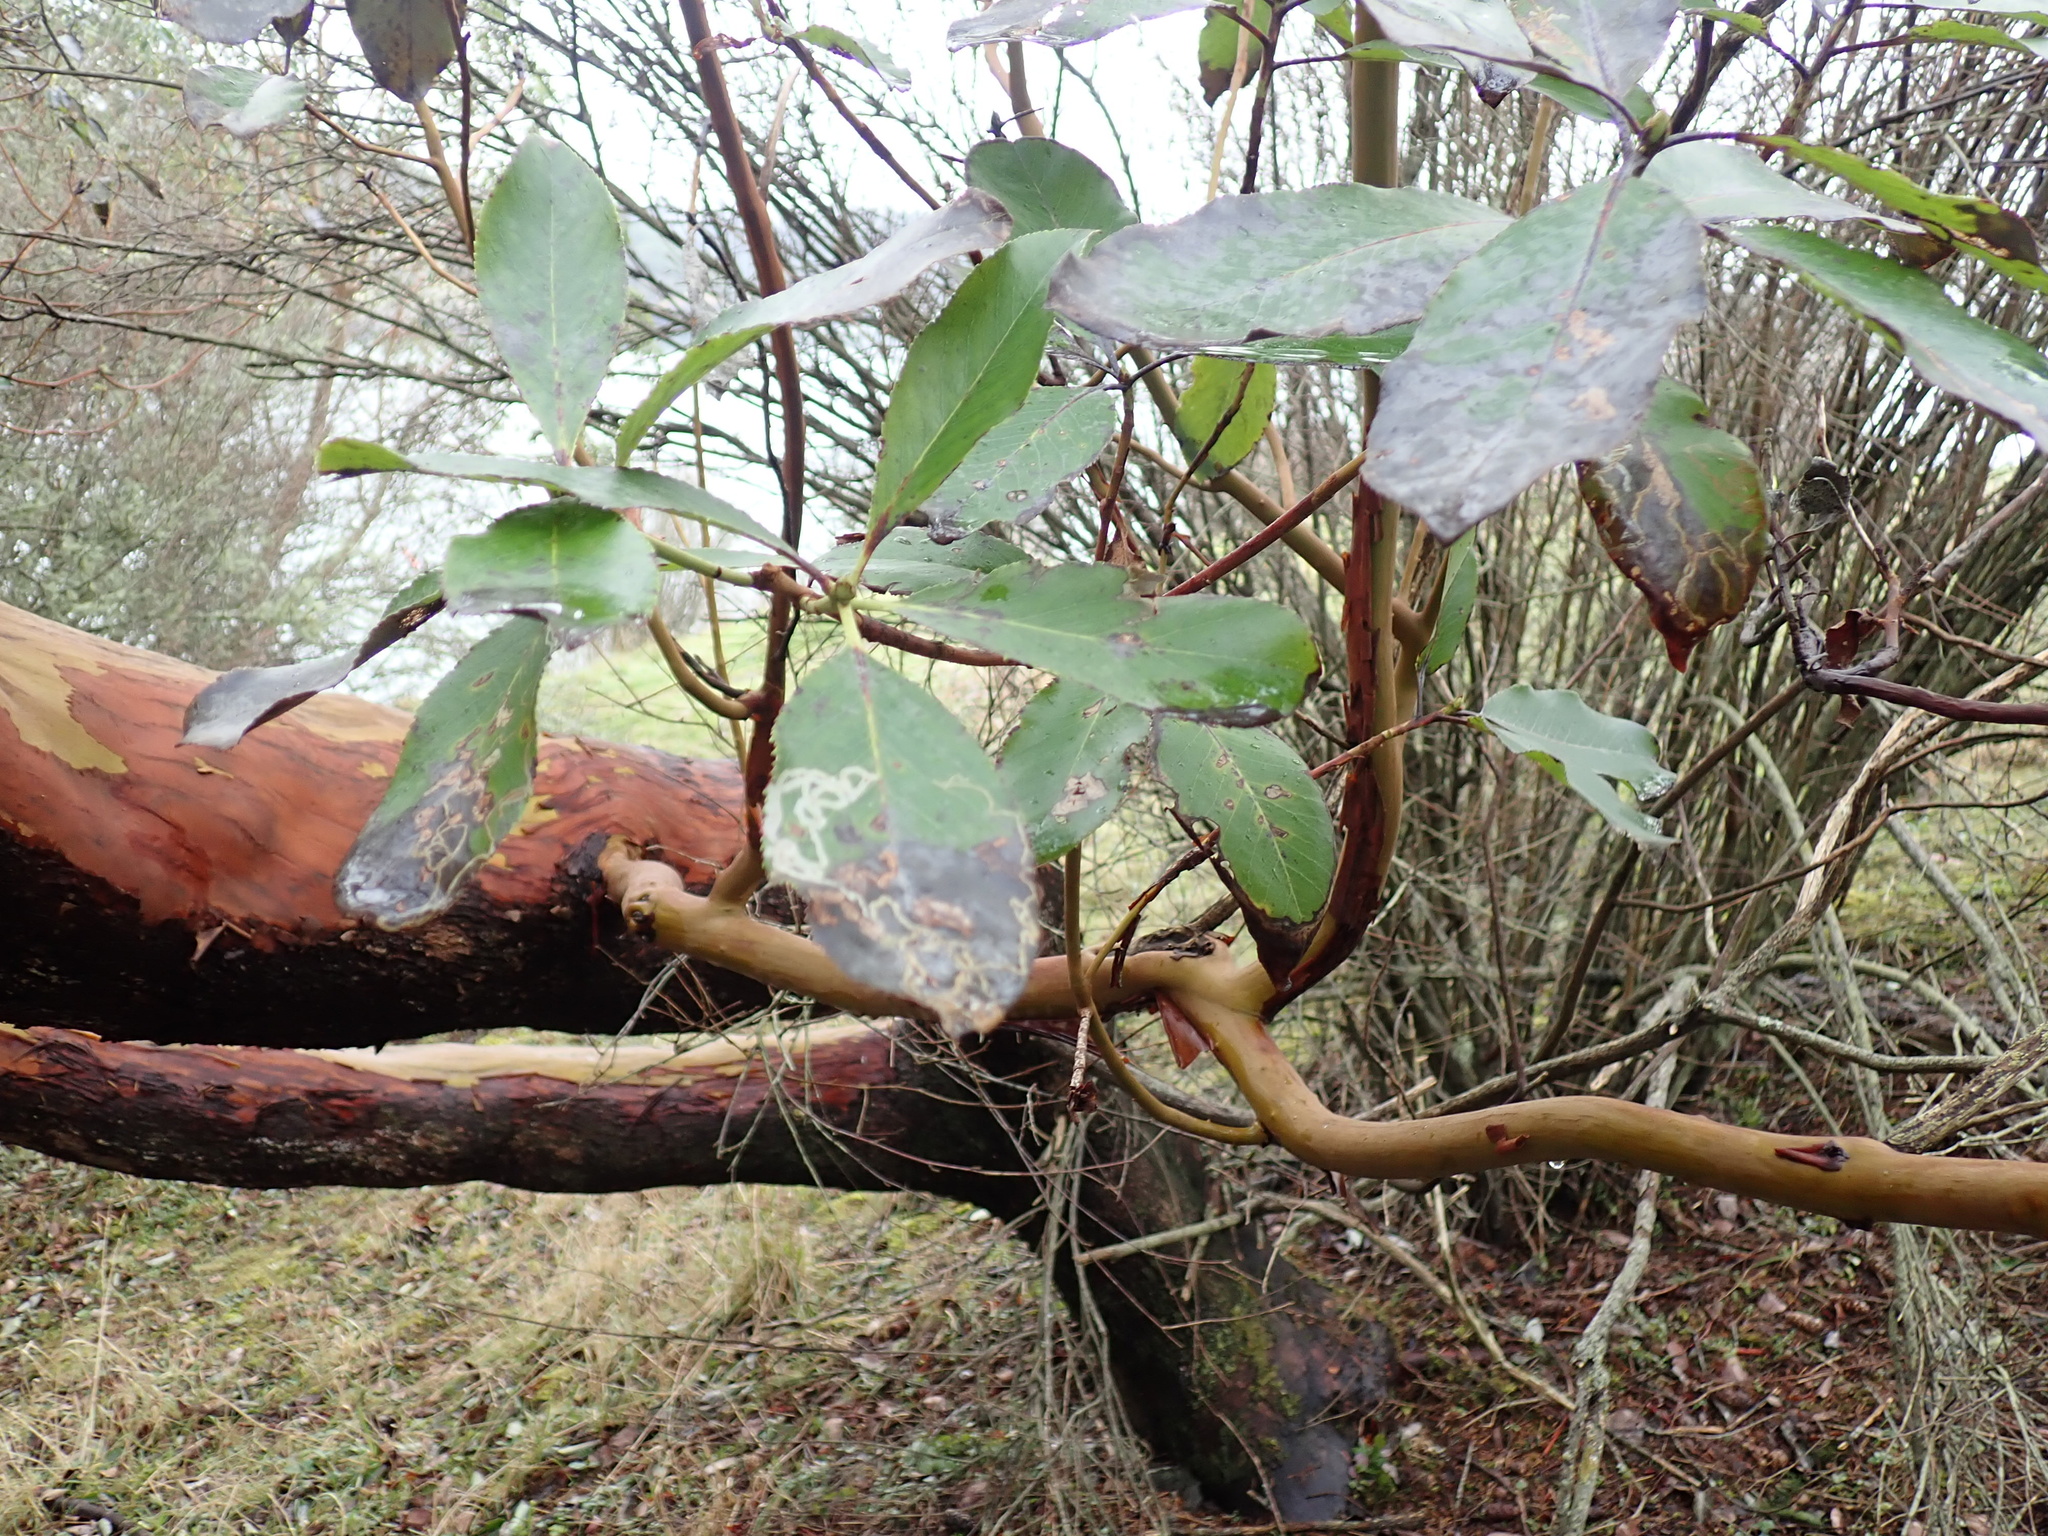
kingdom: Plantae
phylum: Tracheophyta
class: Magnoliopsida
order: Ericales
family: Ericaceae
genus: Arbutus
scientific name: Arbutus menziesii
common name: Pacific madrone
